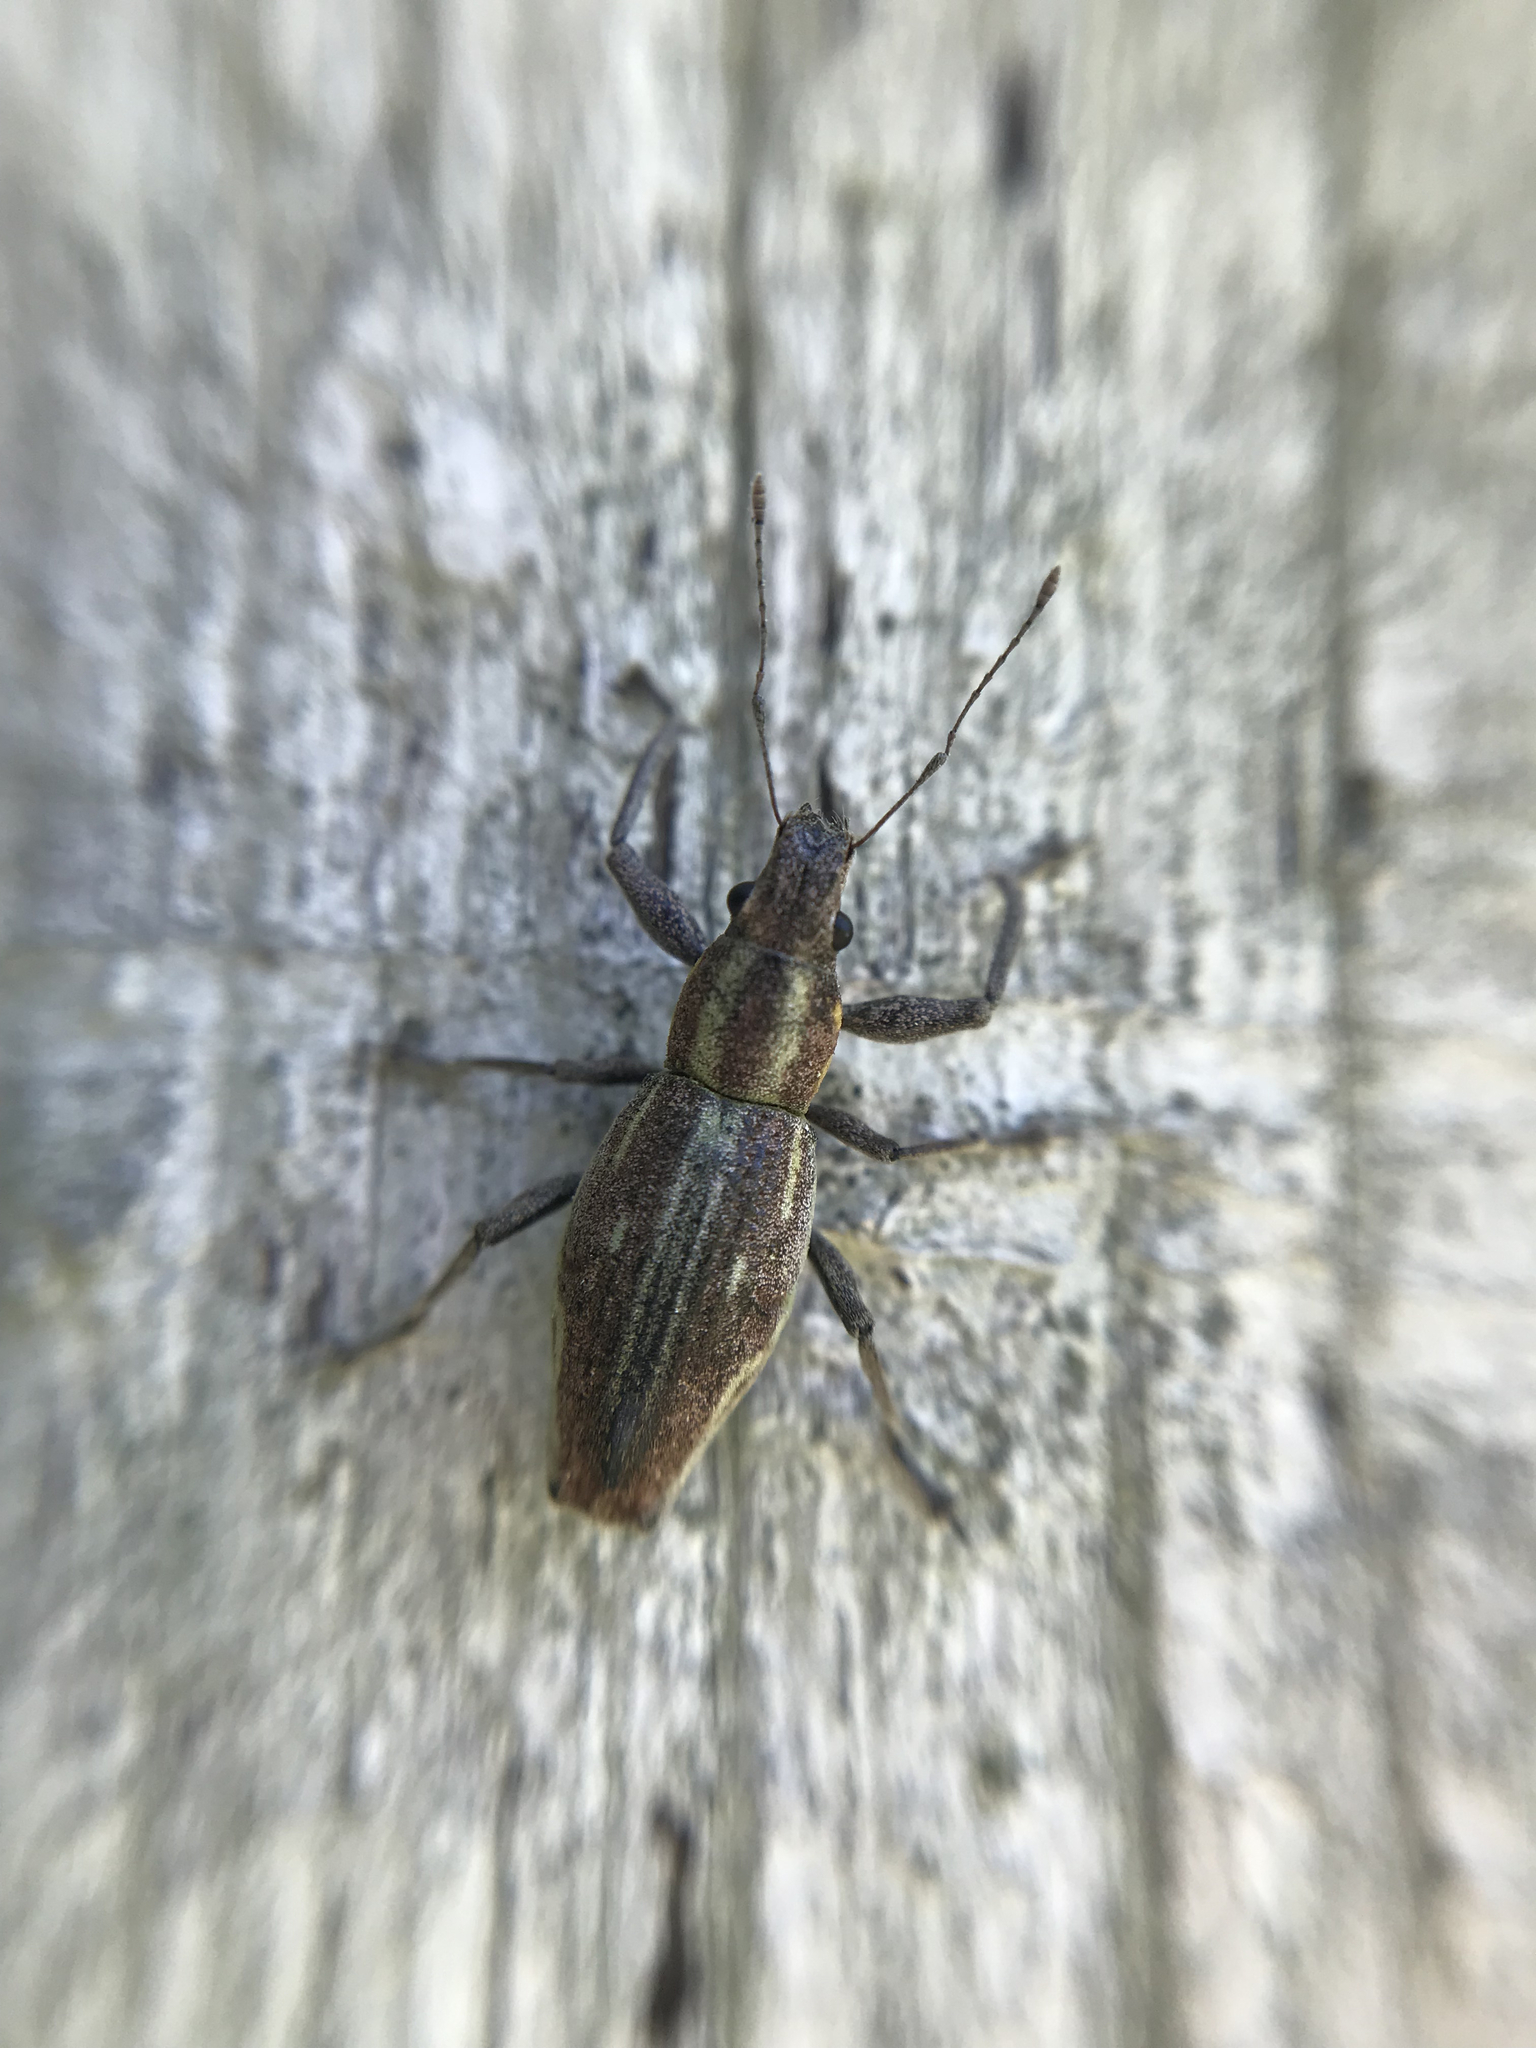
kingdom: Animalia
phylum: Arthropoda
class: Insecta
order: Coleoptera
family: Curculionidae
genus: Naupactus
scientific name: Naupactus xanthographus
